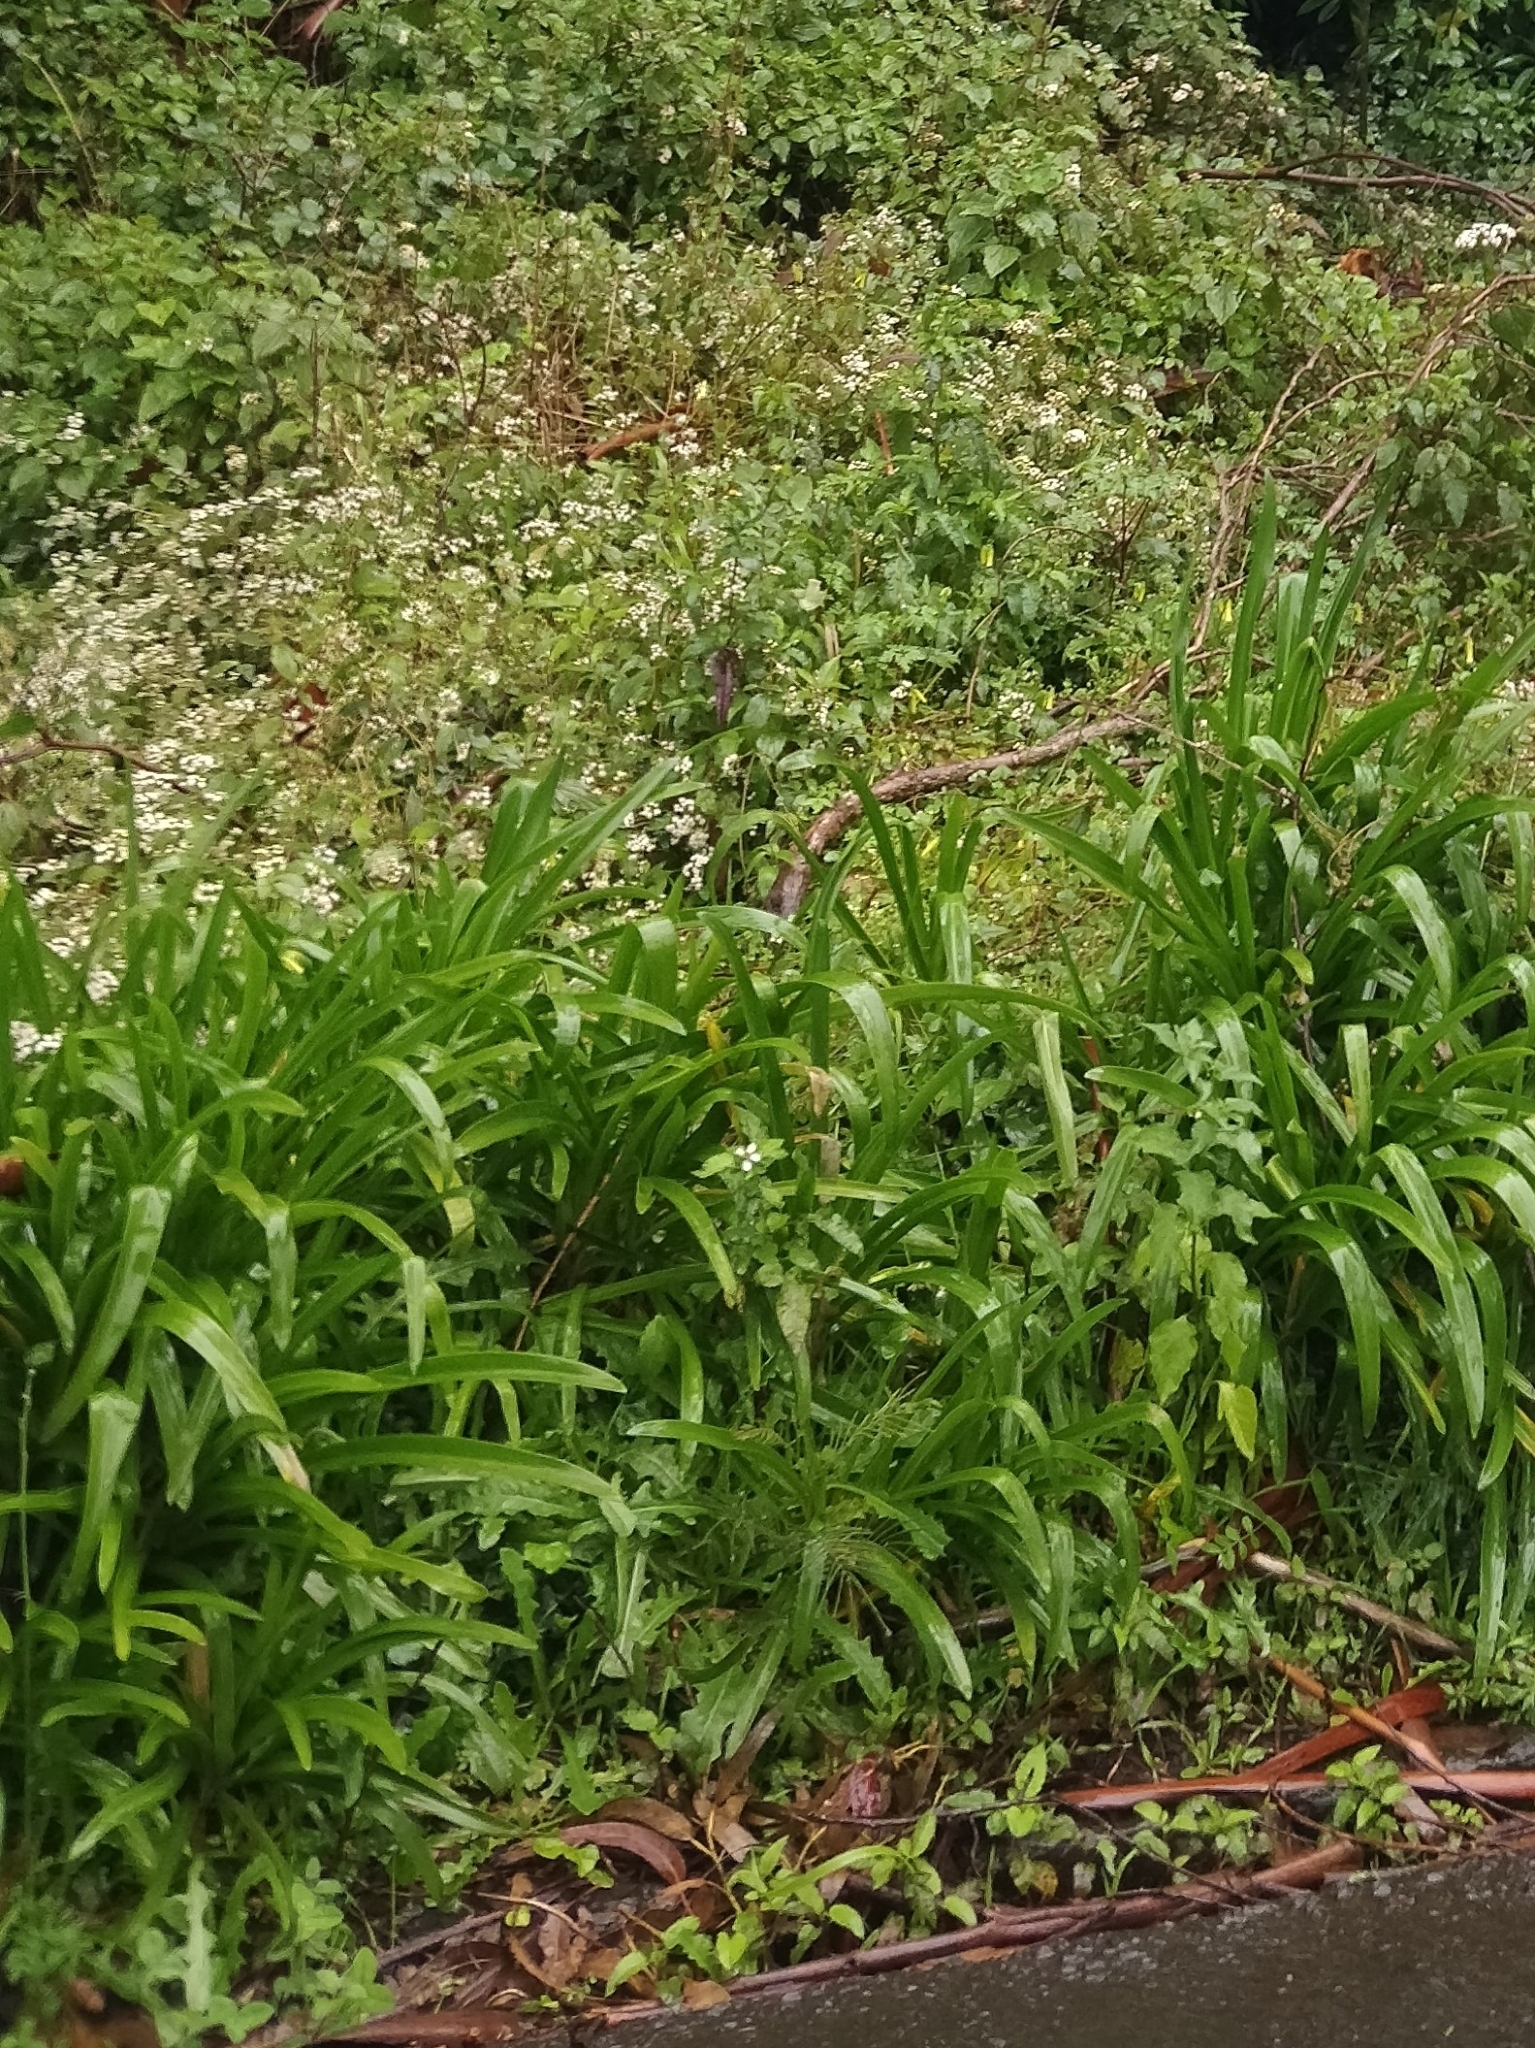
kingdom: Plantae
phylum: Tracheophyta
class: Liliopsida
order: Asparagales
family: Amaryllidaceae
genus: Agapanthus
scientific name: Agapanthus praecox
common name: African-lily
